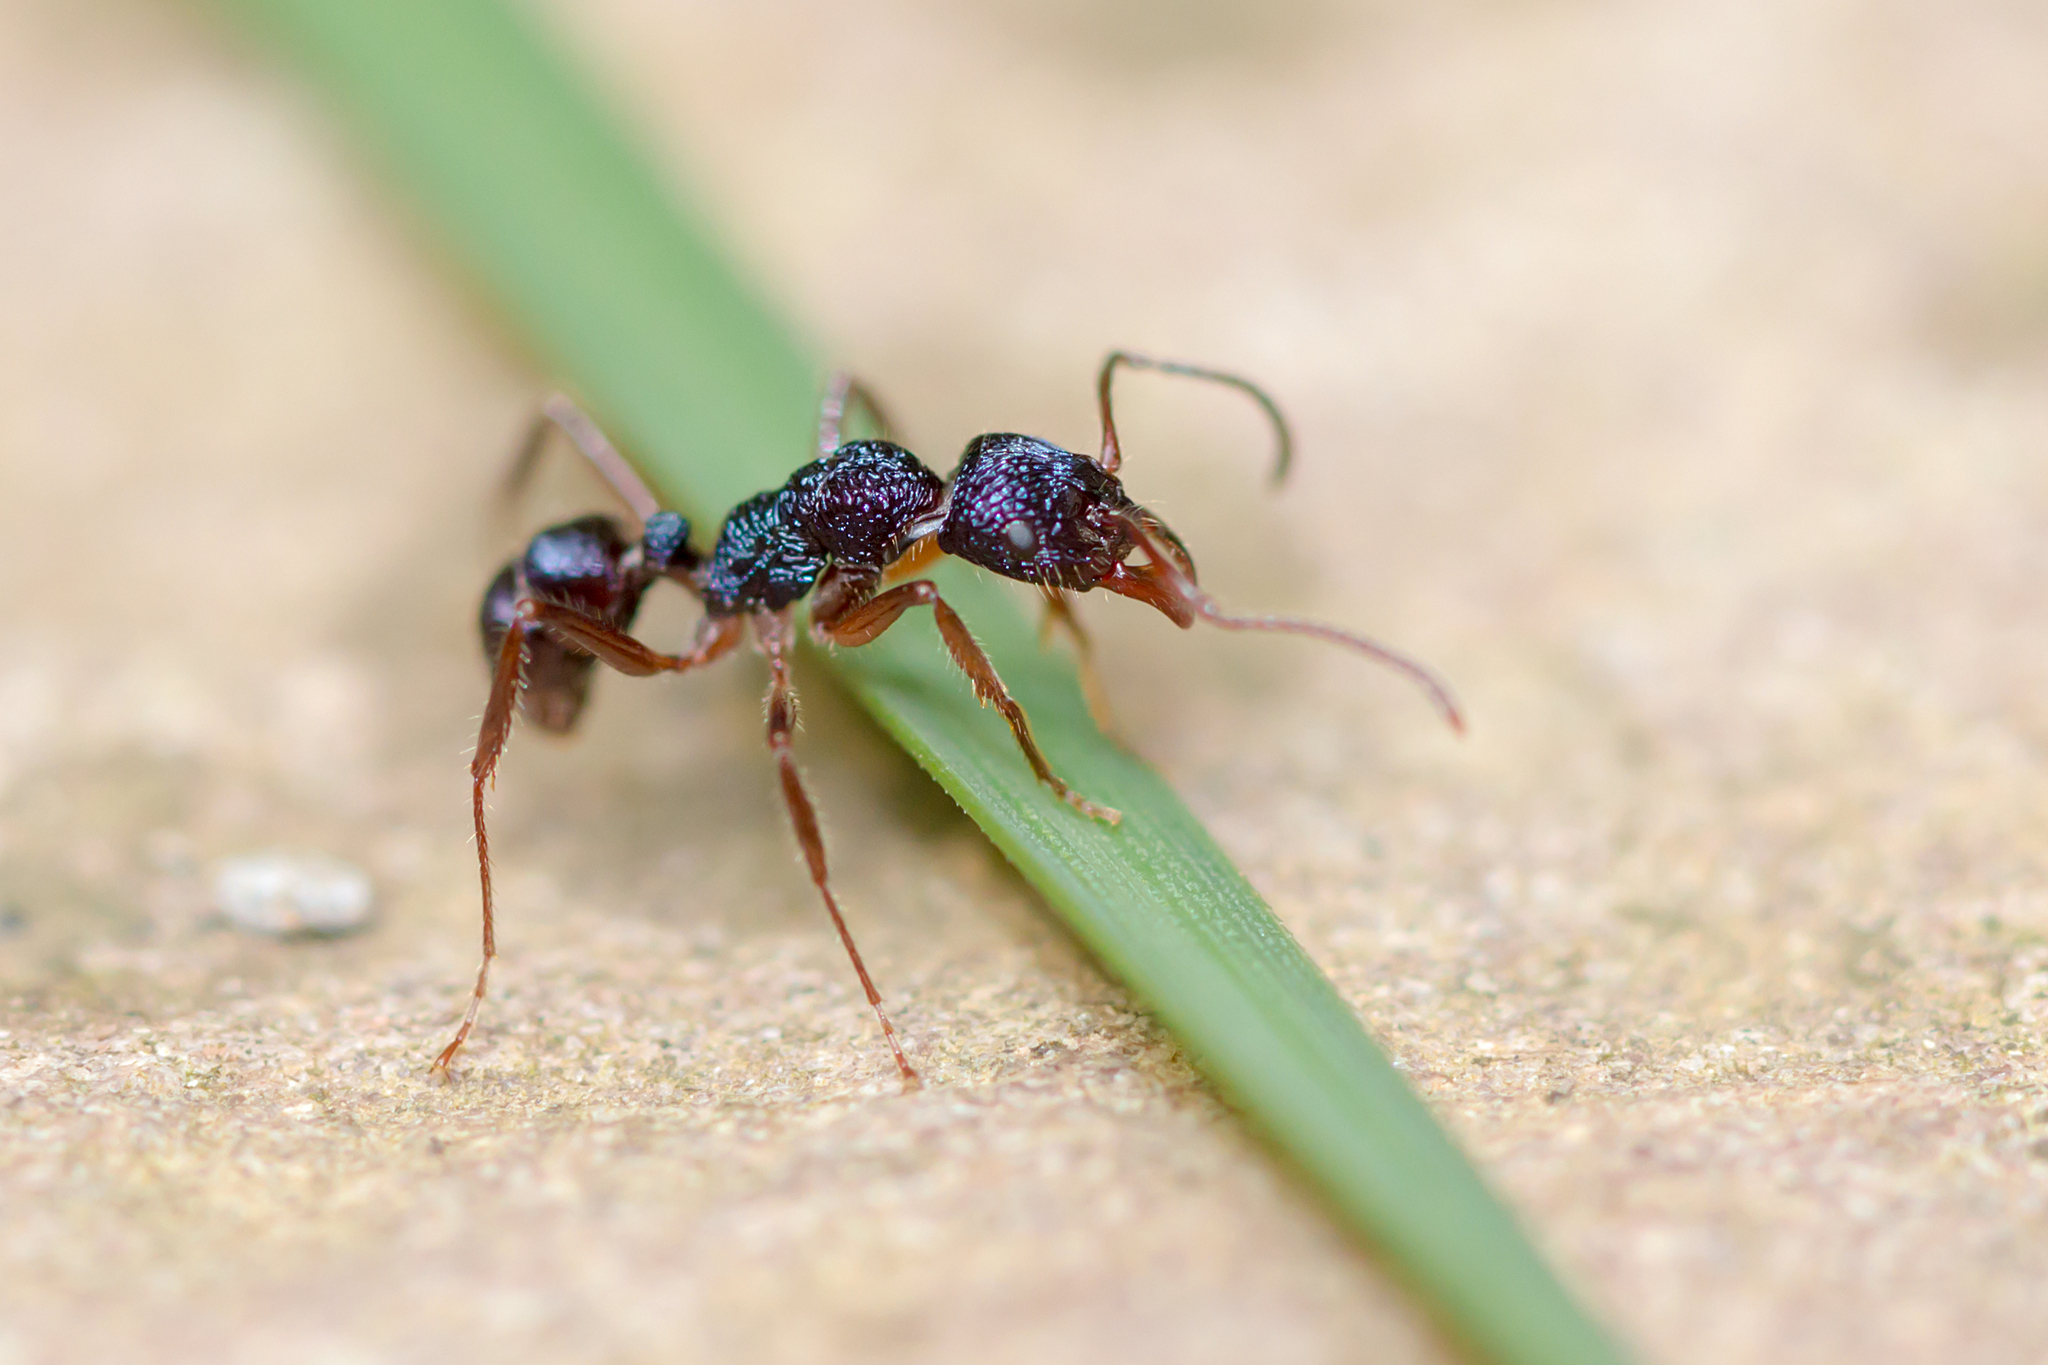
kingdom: Animalia
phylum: Arthropoda
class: Insecta
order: Hymenoptera
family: Formicidae
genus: Rhytidoponera
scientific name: Rhytidoponera confusa
